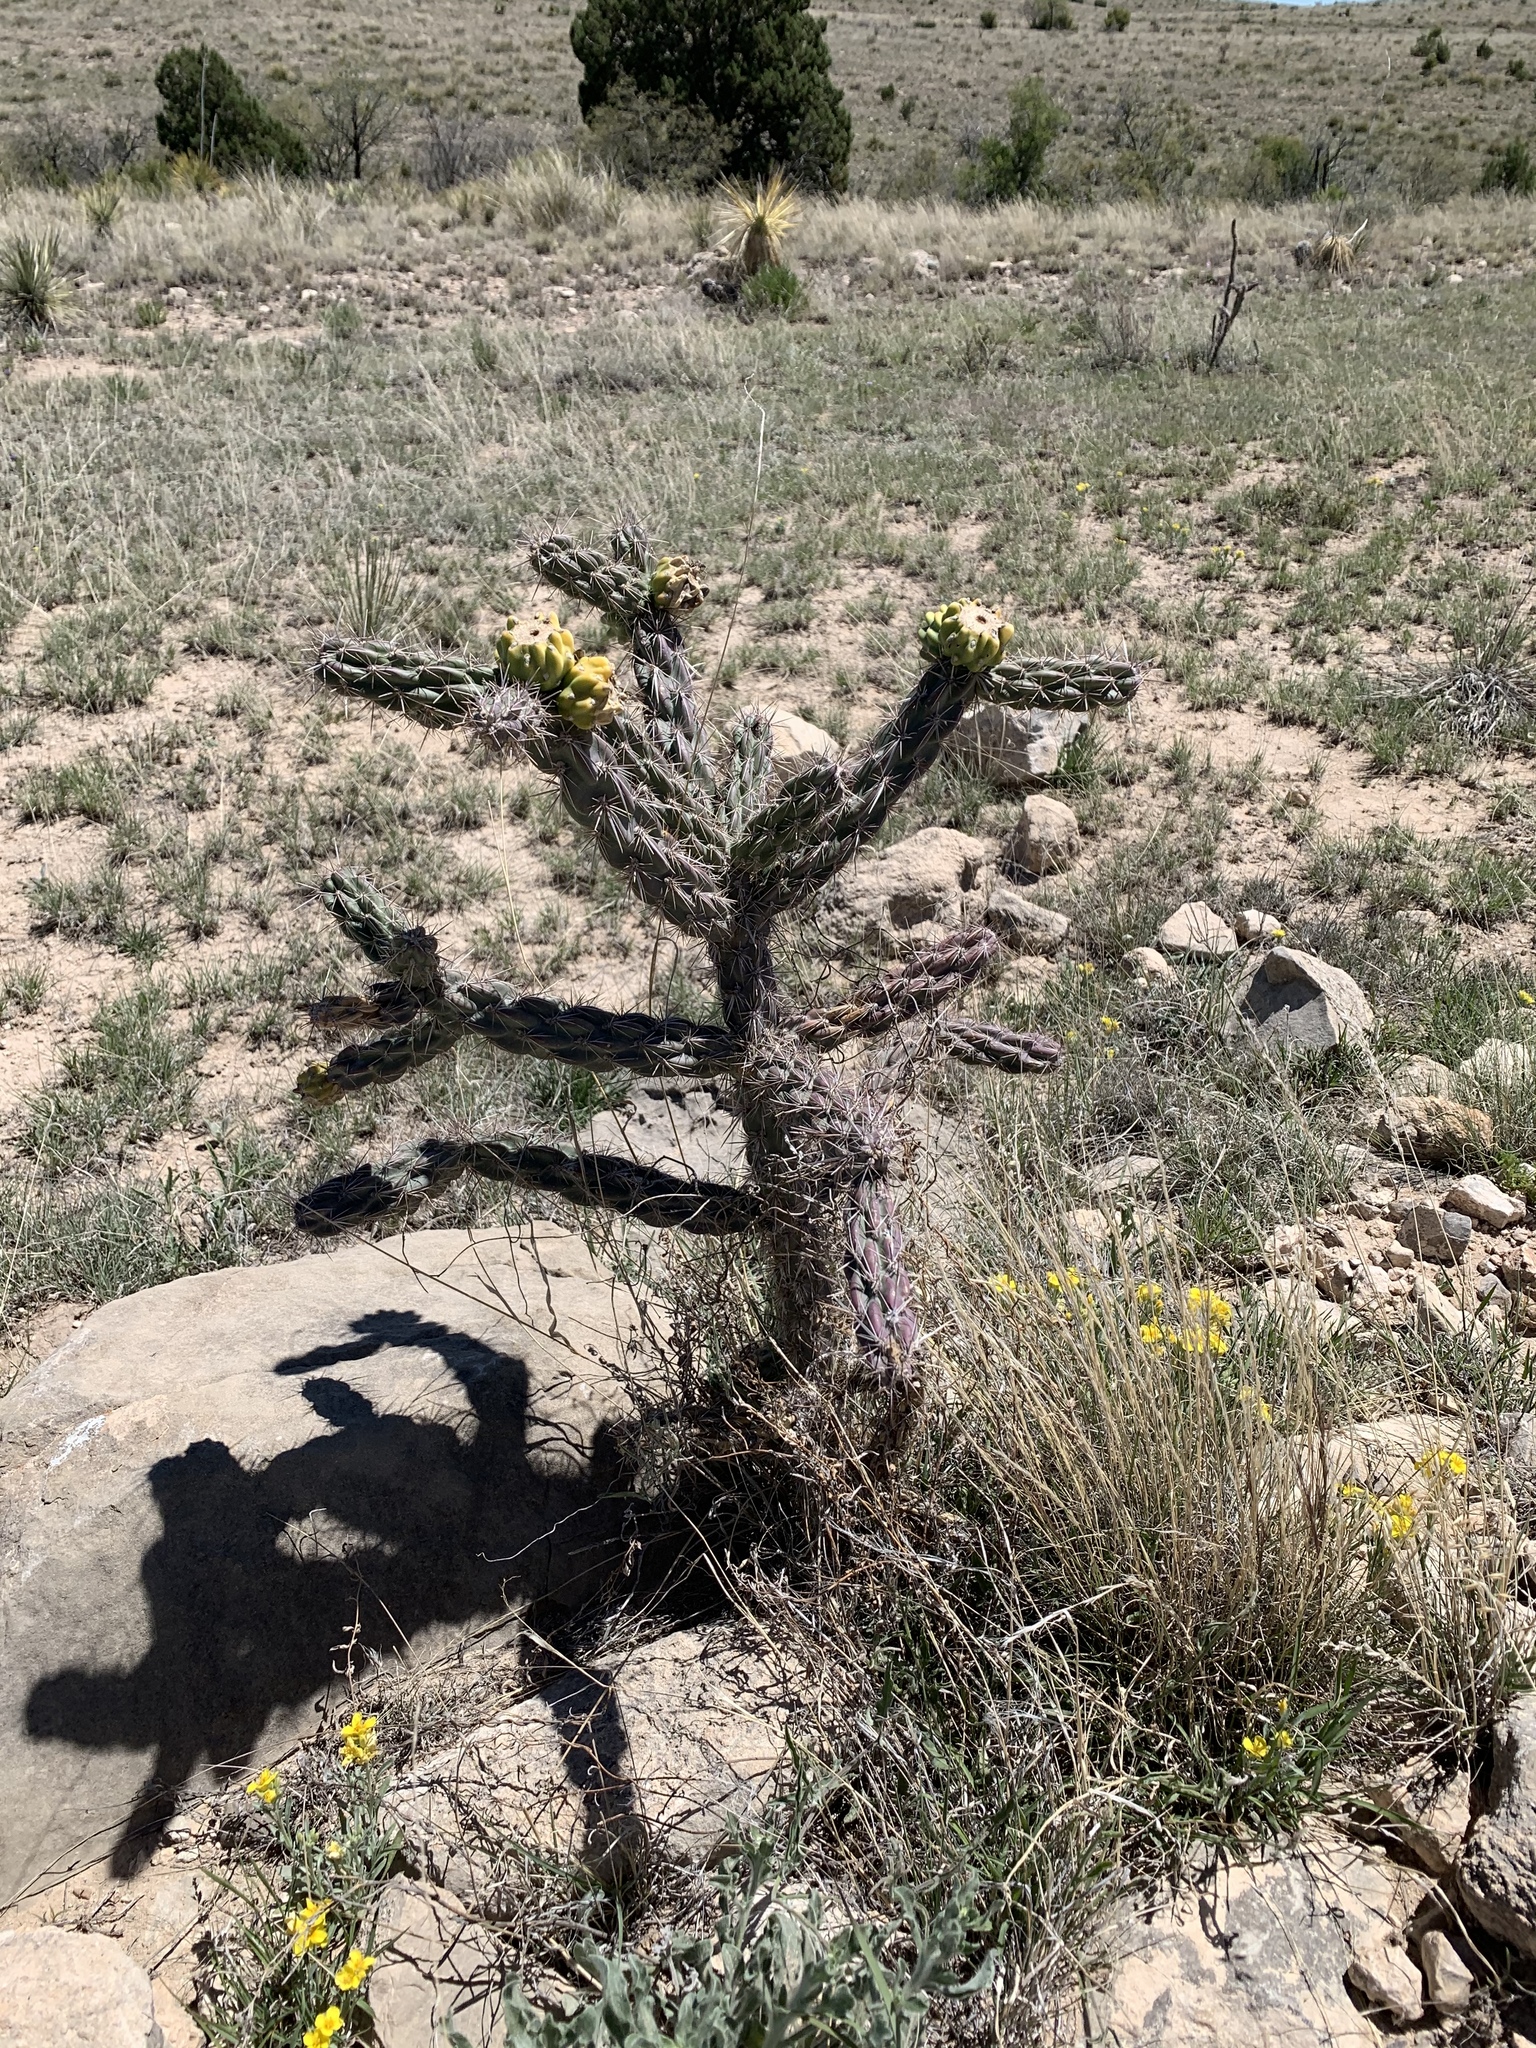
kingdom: Plantae
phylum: Tracheophyta
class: Magnoliopsida
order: Caryophyllales
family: Cactaceae
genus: Cylindropuntia
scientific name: Cylindropuntia imbricata
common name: Candelabrum cactus
